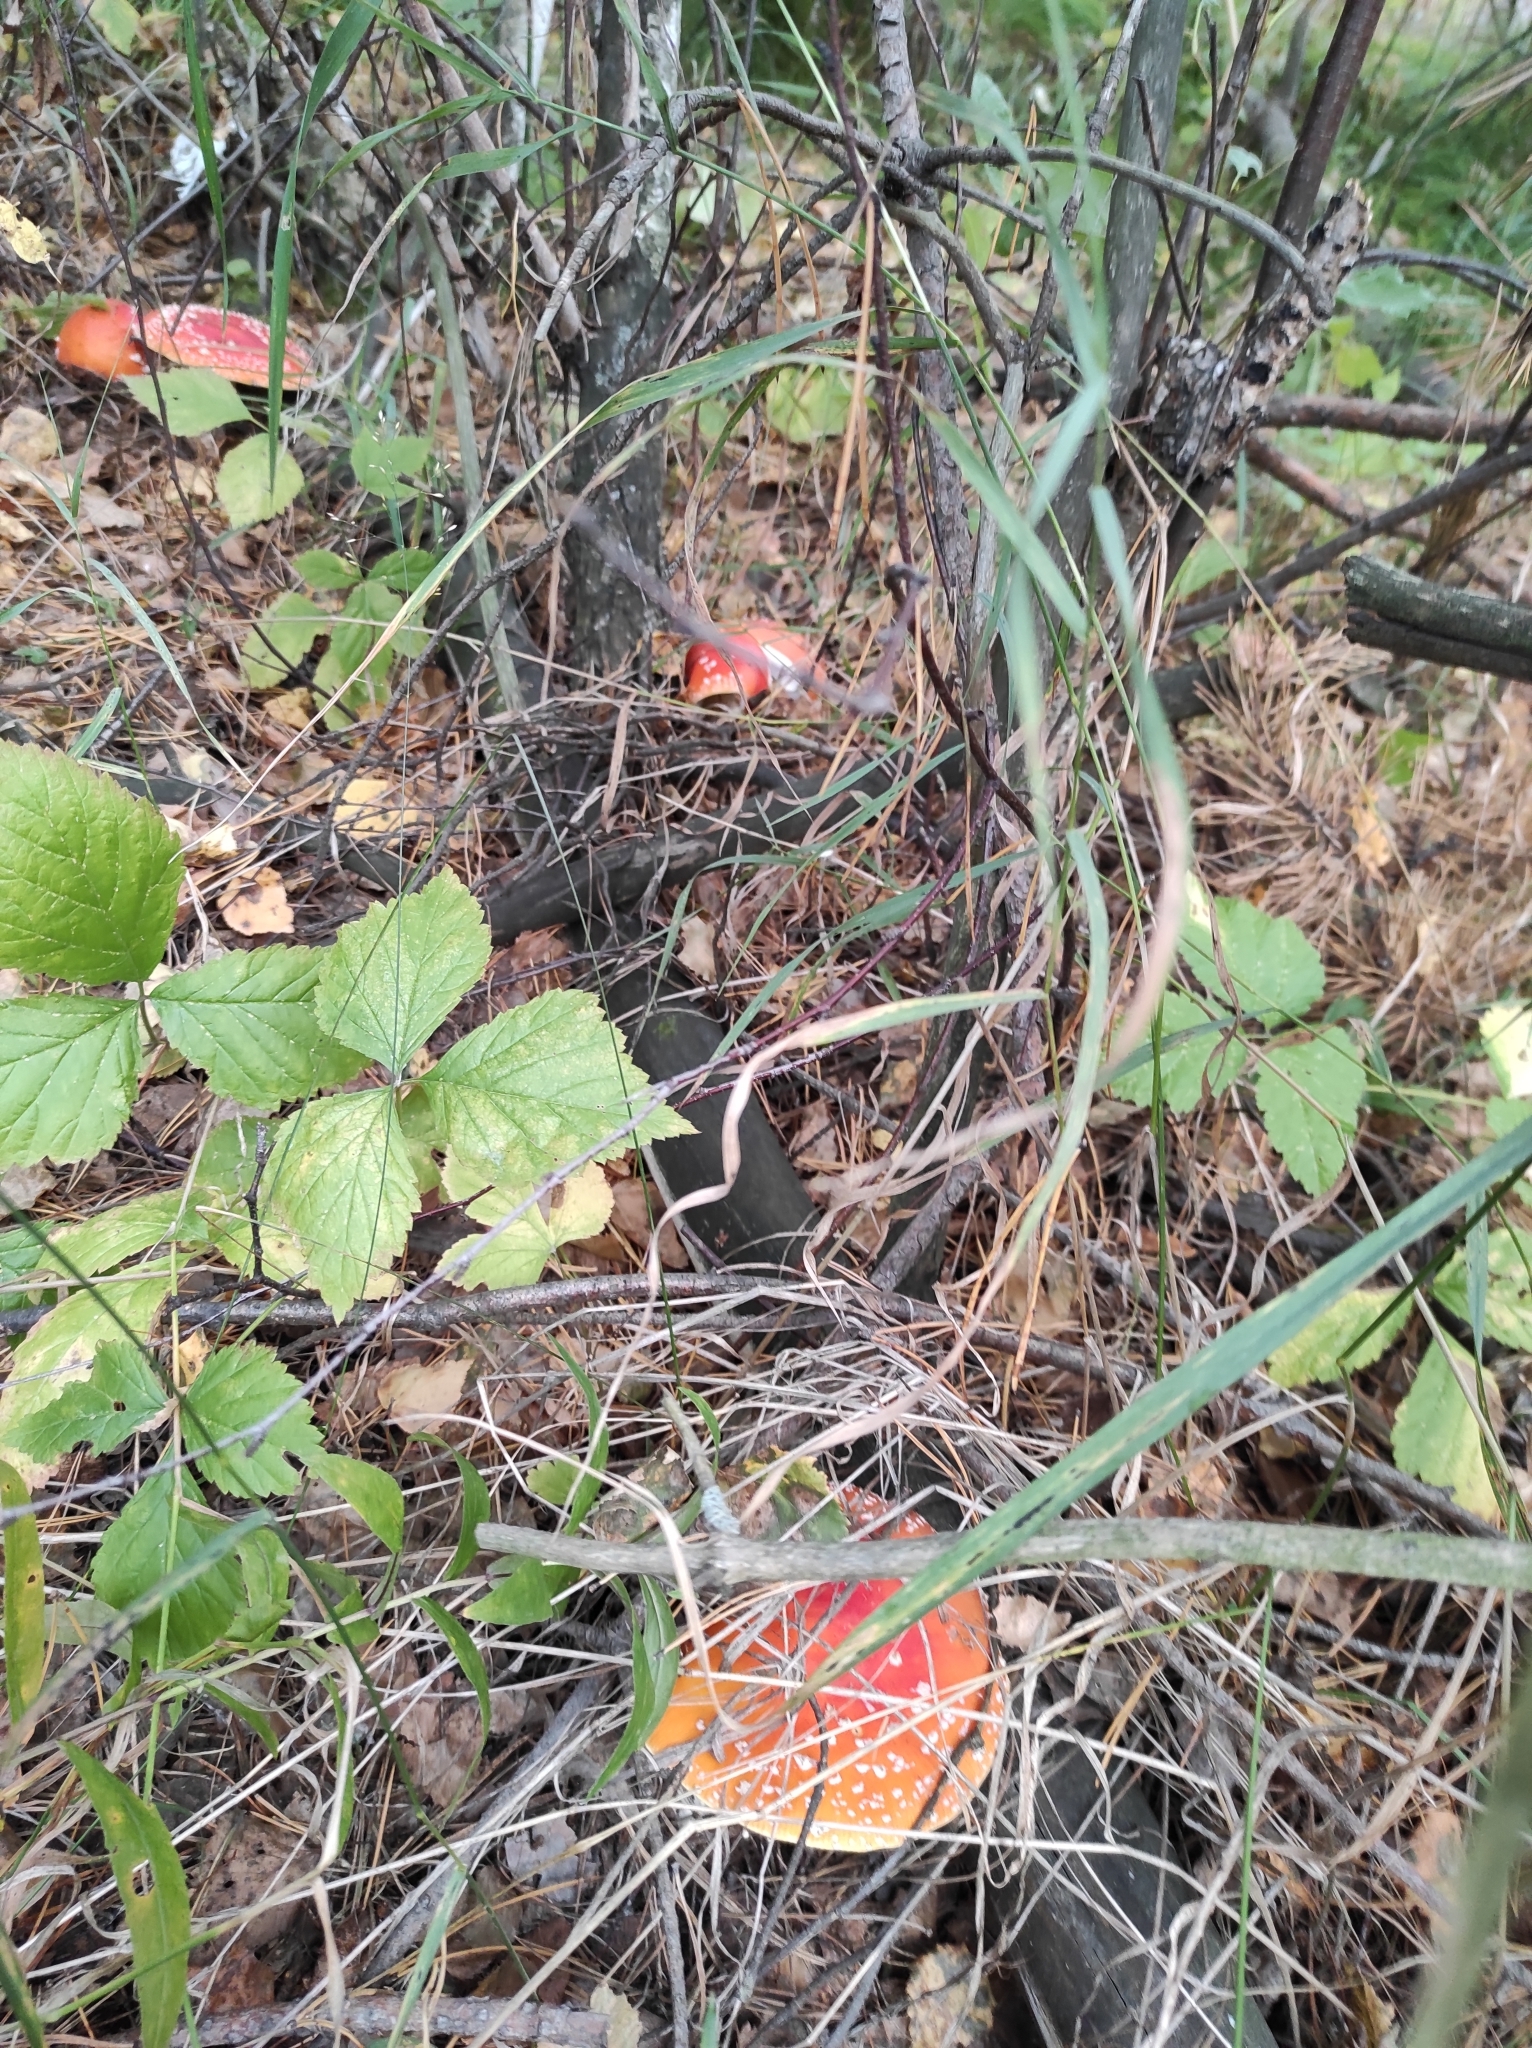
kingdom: Fungi
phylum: Basidiomycota
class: Agaricomycetes
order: Agaricales
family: Amanitaceae
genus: Amanita
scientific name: Amanita muscaria
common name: Fly agaric
